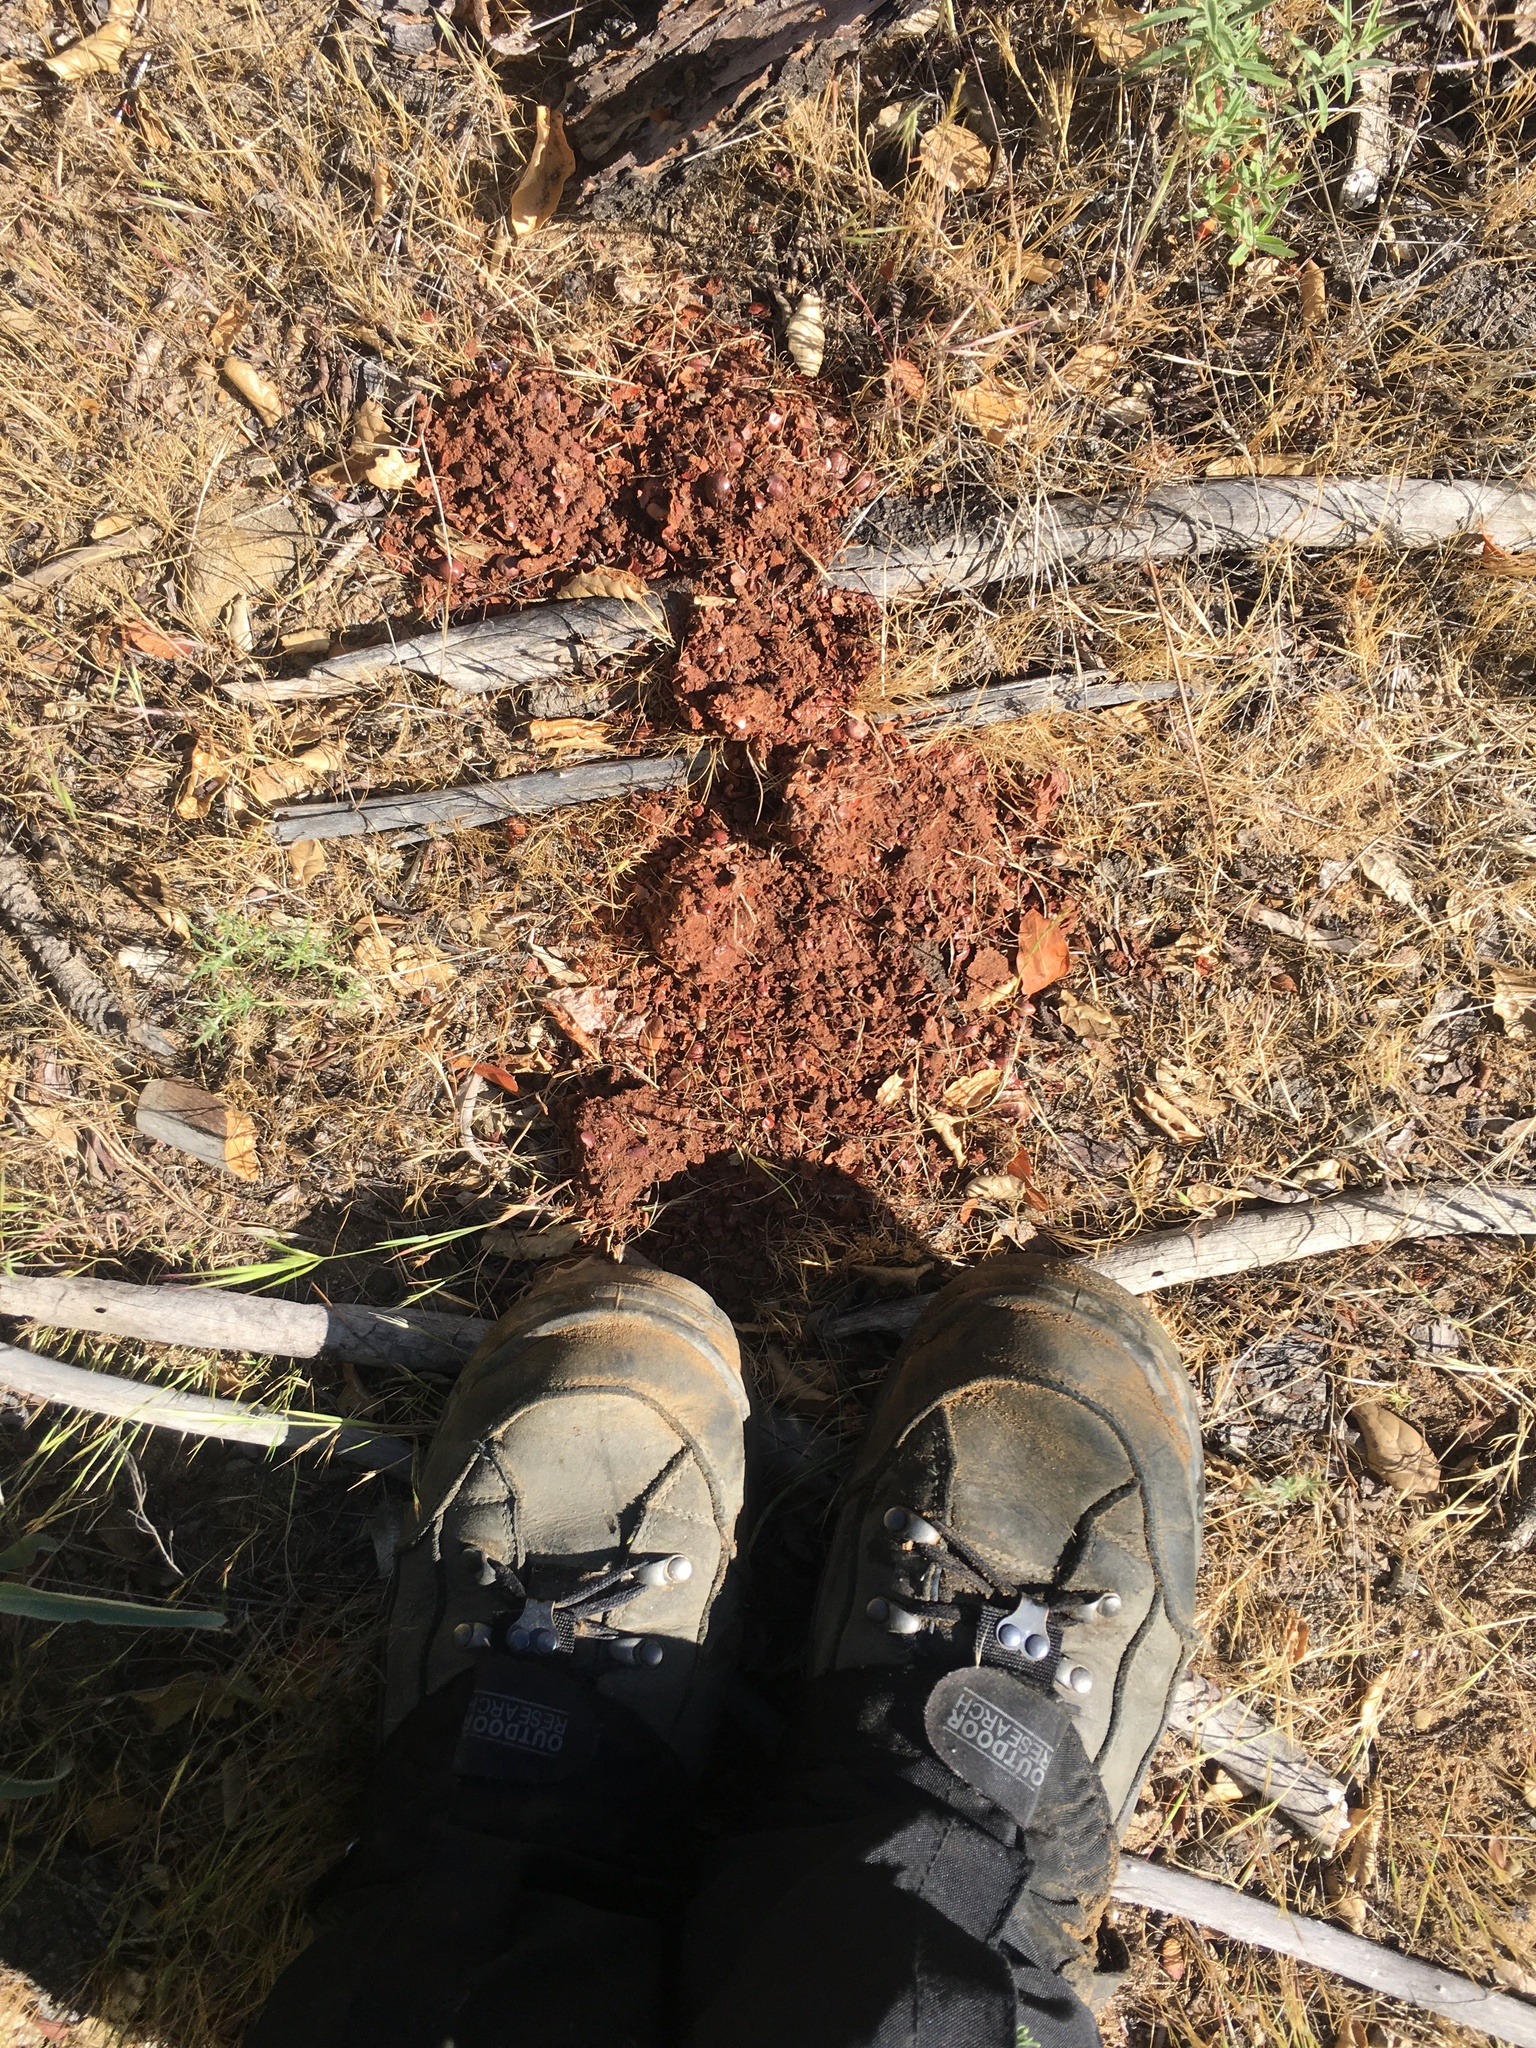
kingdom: Animalia
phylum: Chordata
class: Mammalia
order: Carnivora
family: Ursidae
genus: Ursus
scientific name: Ursus americanus
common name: American black bear
